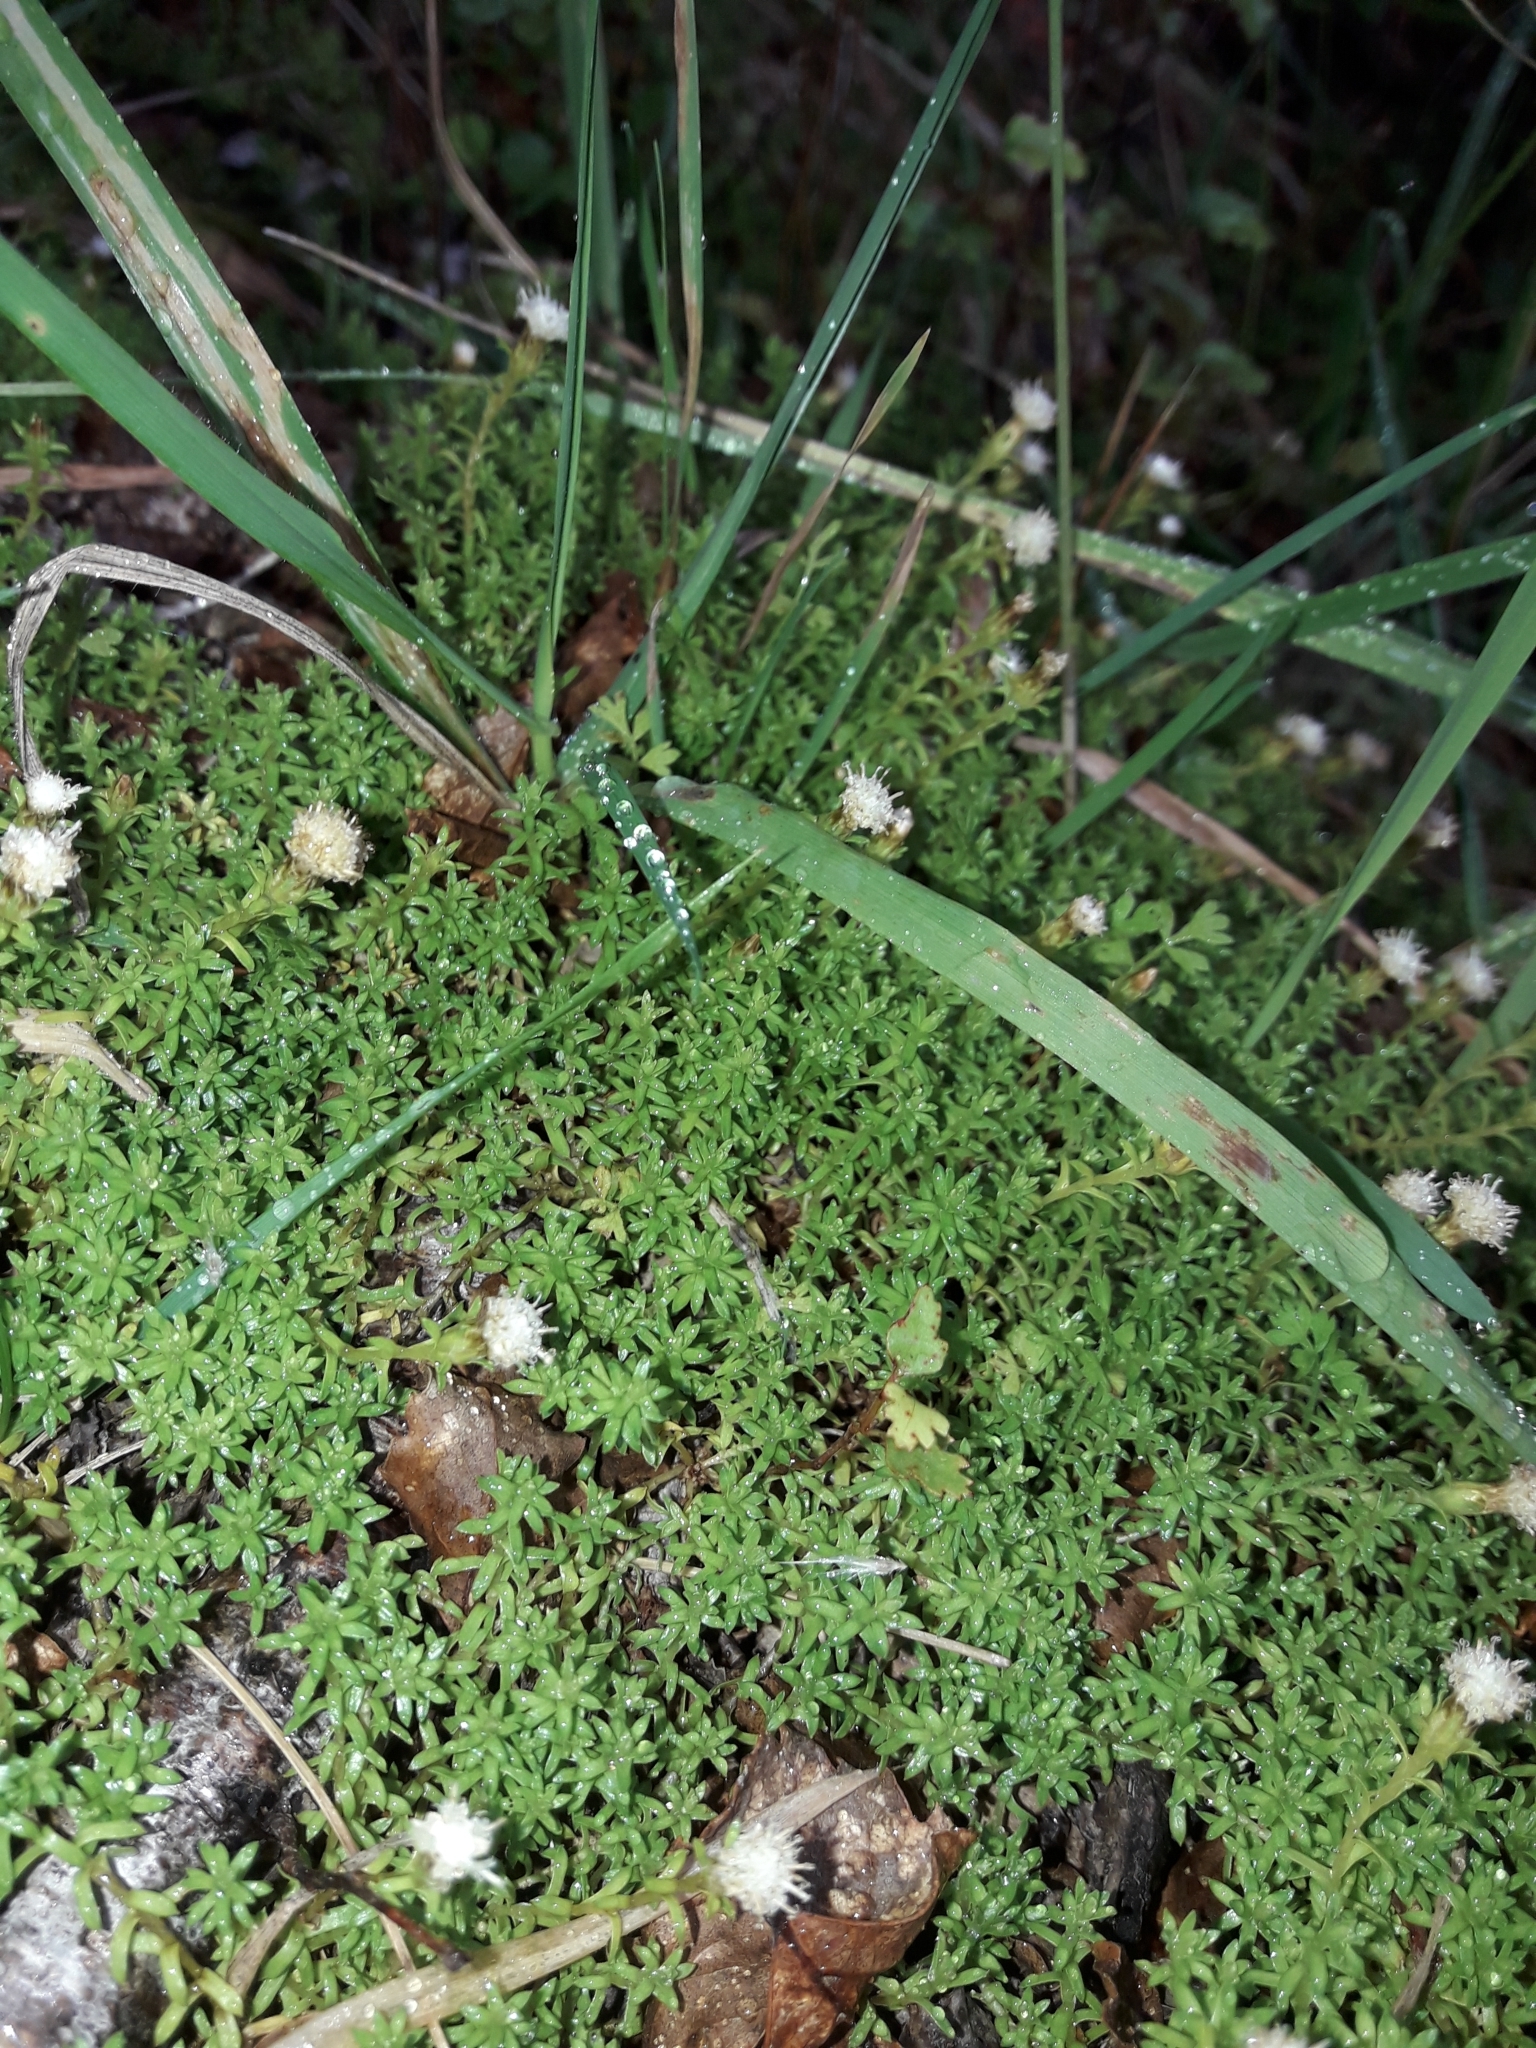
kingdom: Plantae
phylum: Tracheophyta
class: Magnoliopsida
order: Asterales
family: Asteraceae
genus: Raoulia
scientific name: Raoulia glabra
